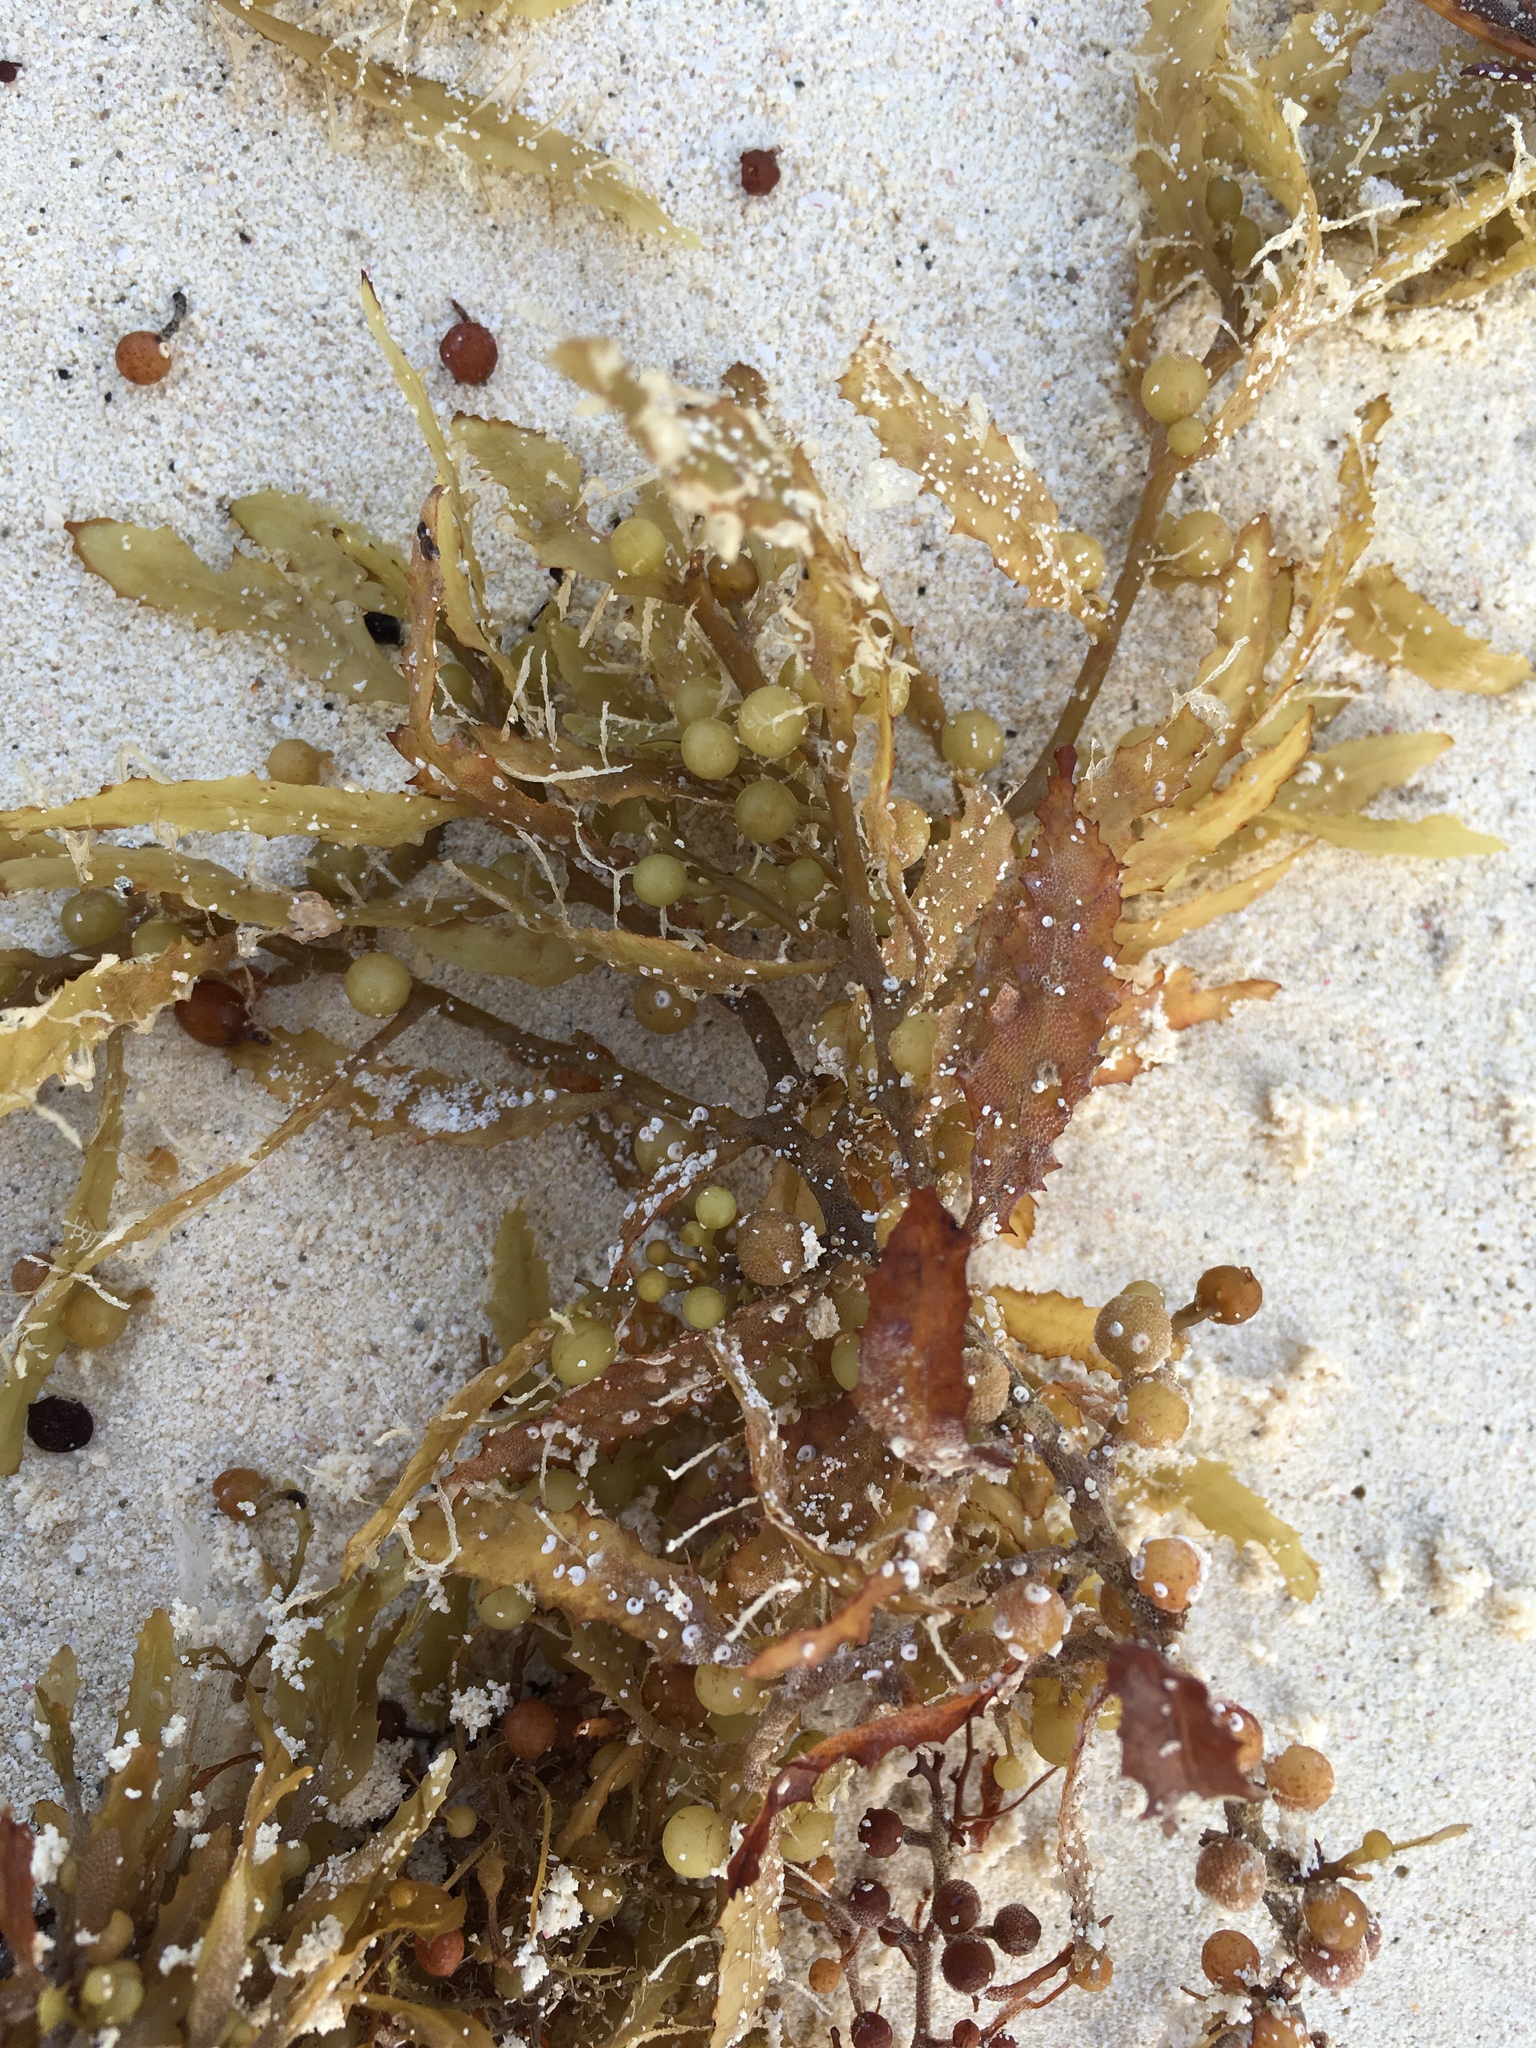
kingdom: Chromista
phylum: Ochrophyta
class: Phaeophyceae
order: Fucales
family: Sargassaceae
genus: Sargassum
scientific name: Sargassum natans
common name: Sargasso weed
